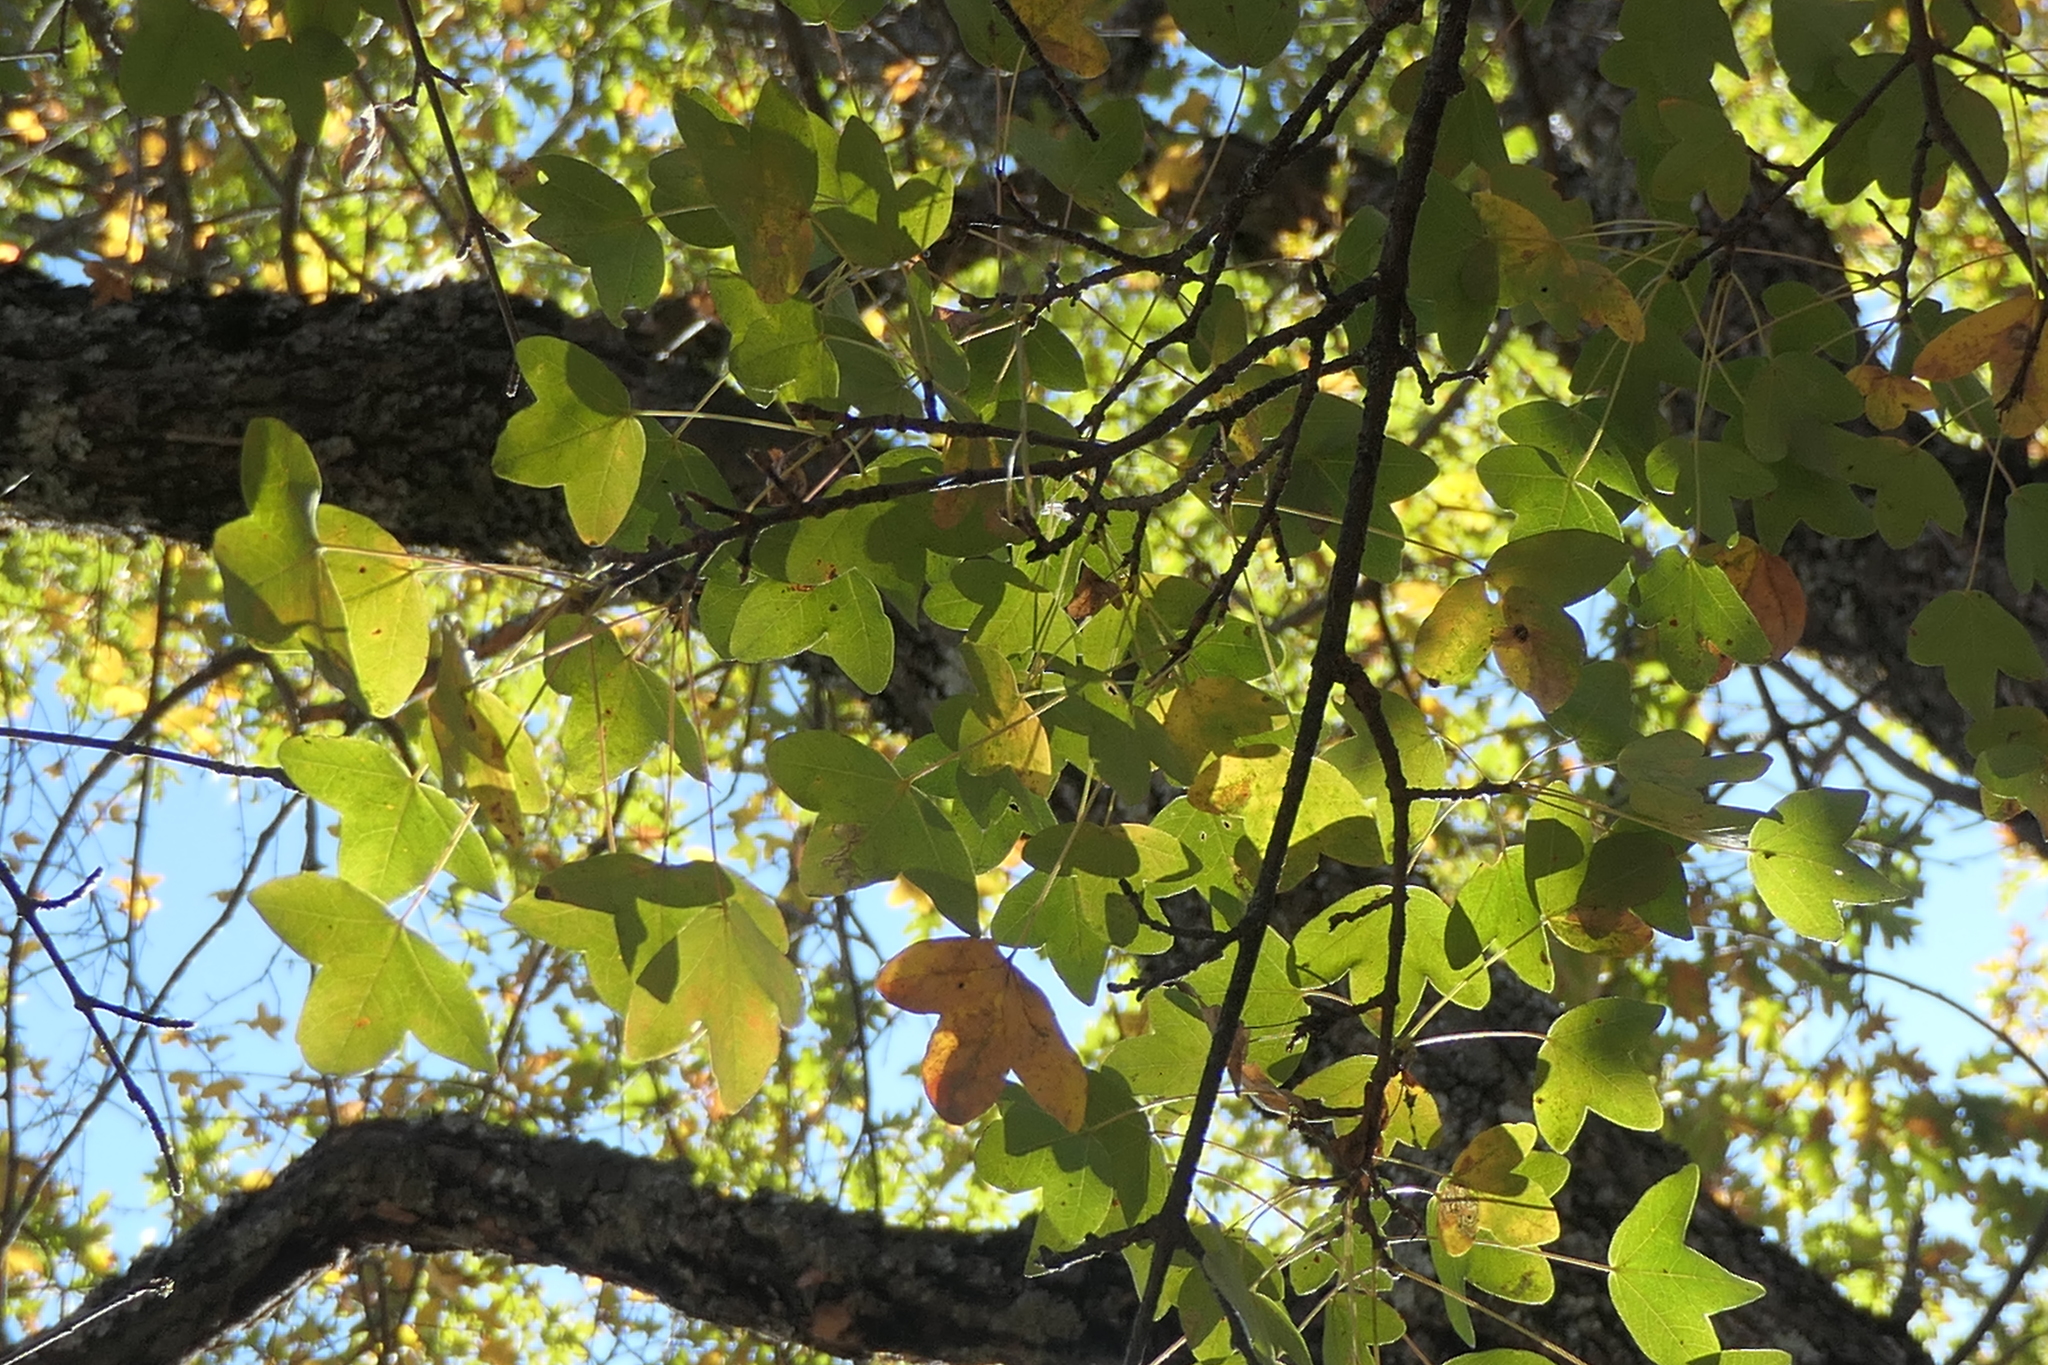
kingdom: Plantae
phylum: Tracheophyta
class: Magnoliopsida
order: Sapindales
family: Sapindaceae
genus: Acer
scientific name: Acer monspessulanum
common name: Montpellier maple
